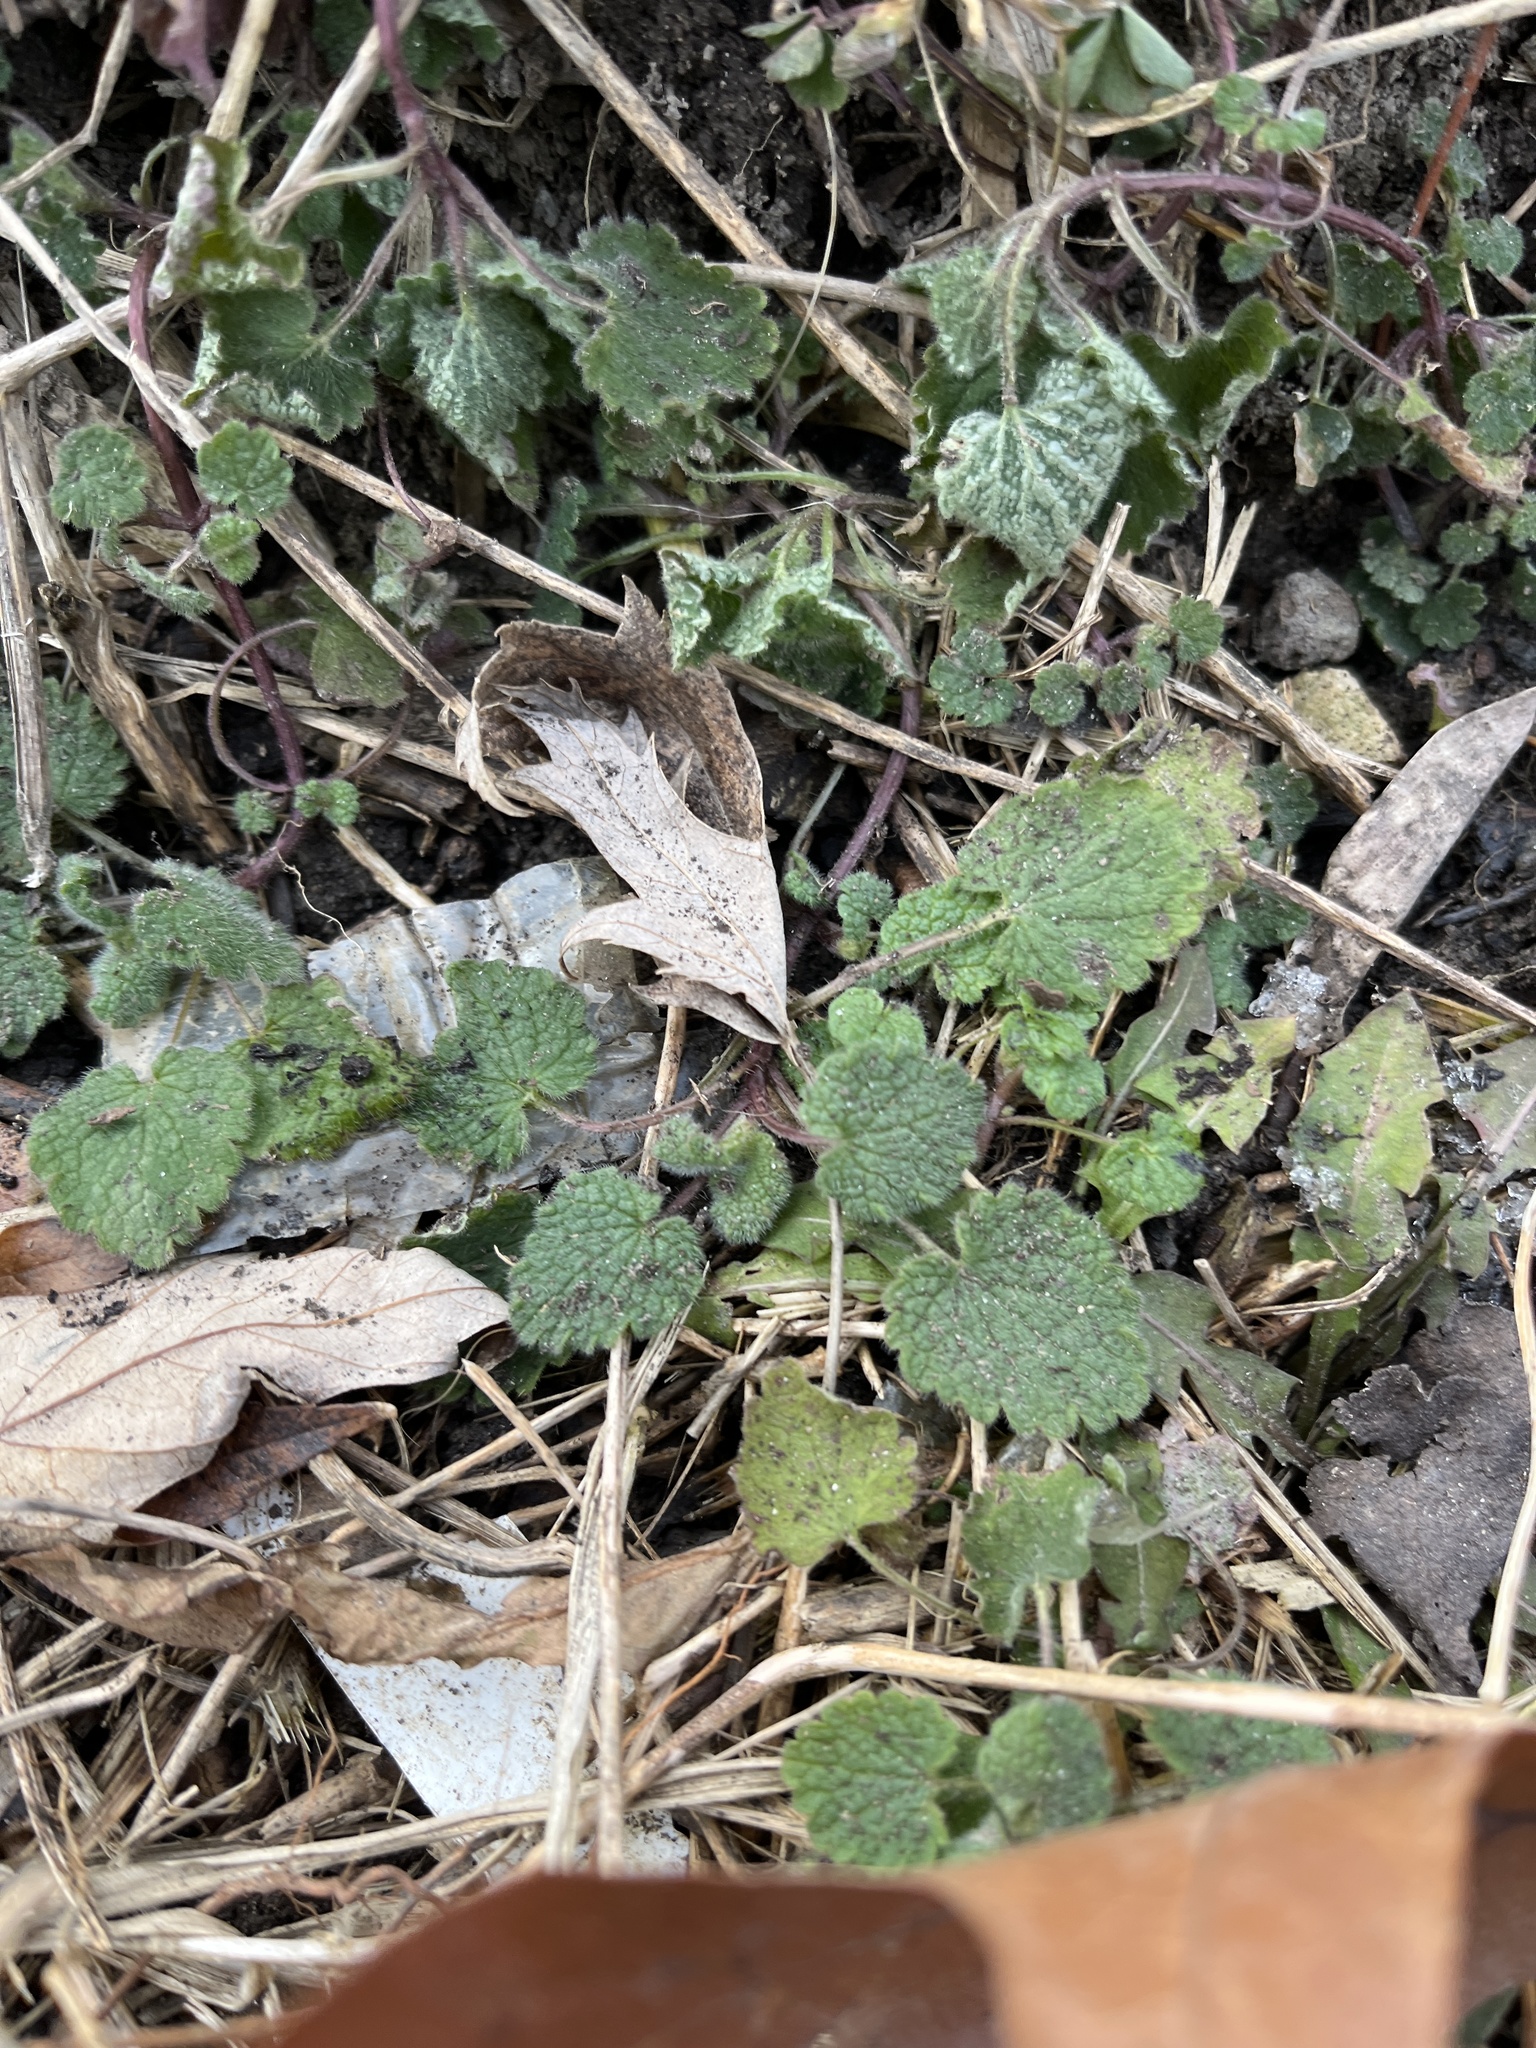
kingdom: Plantae
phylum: Tracheophyta
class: Magnoliopsida
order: Lamiales
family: Lamiaceae
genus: Lamium
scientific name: Lamium purpureum
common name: Red dead-nettle
